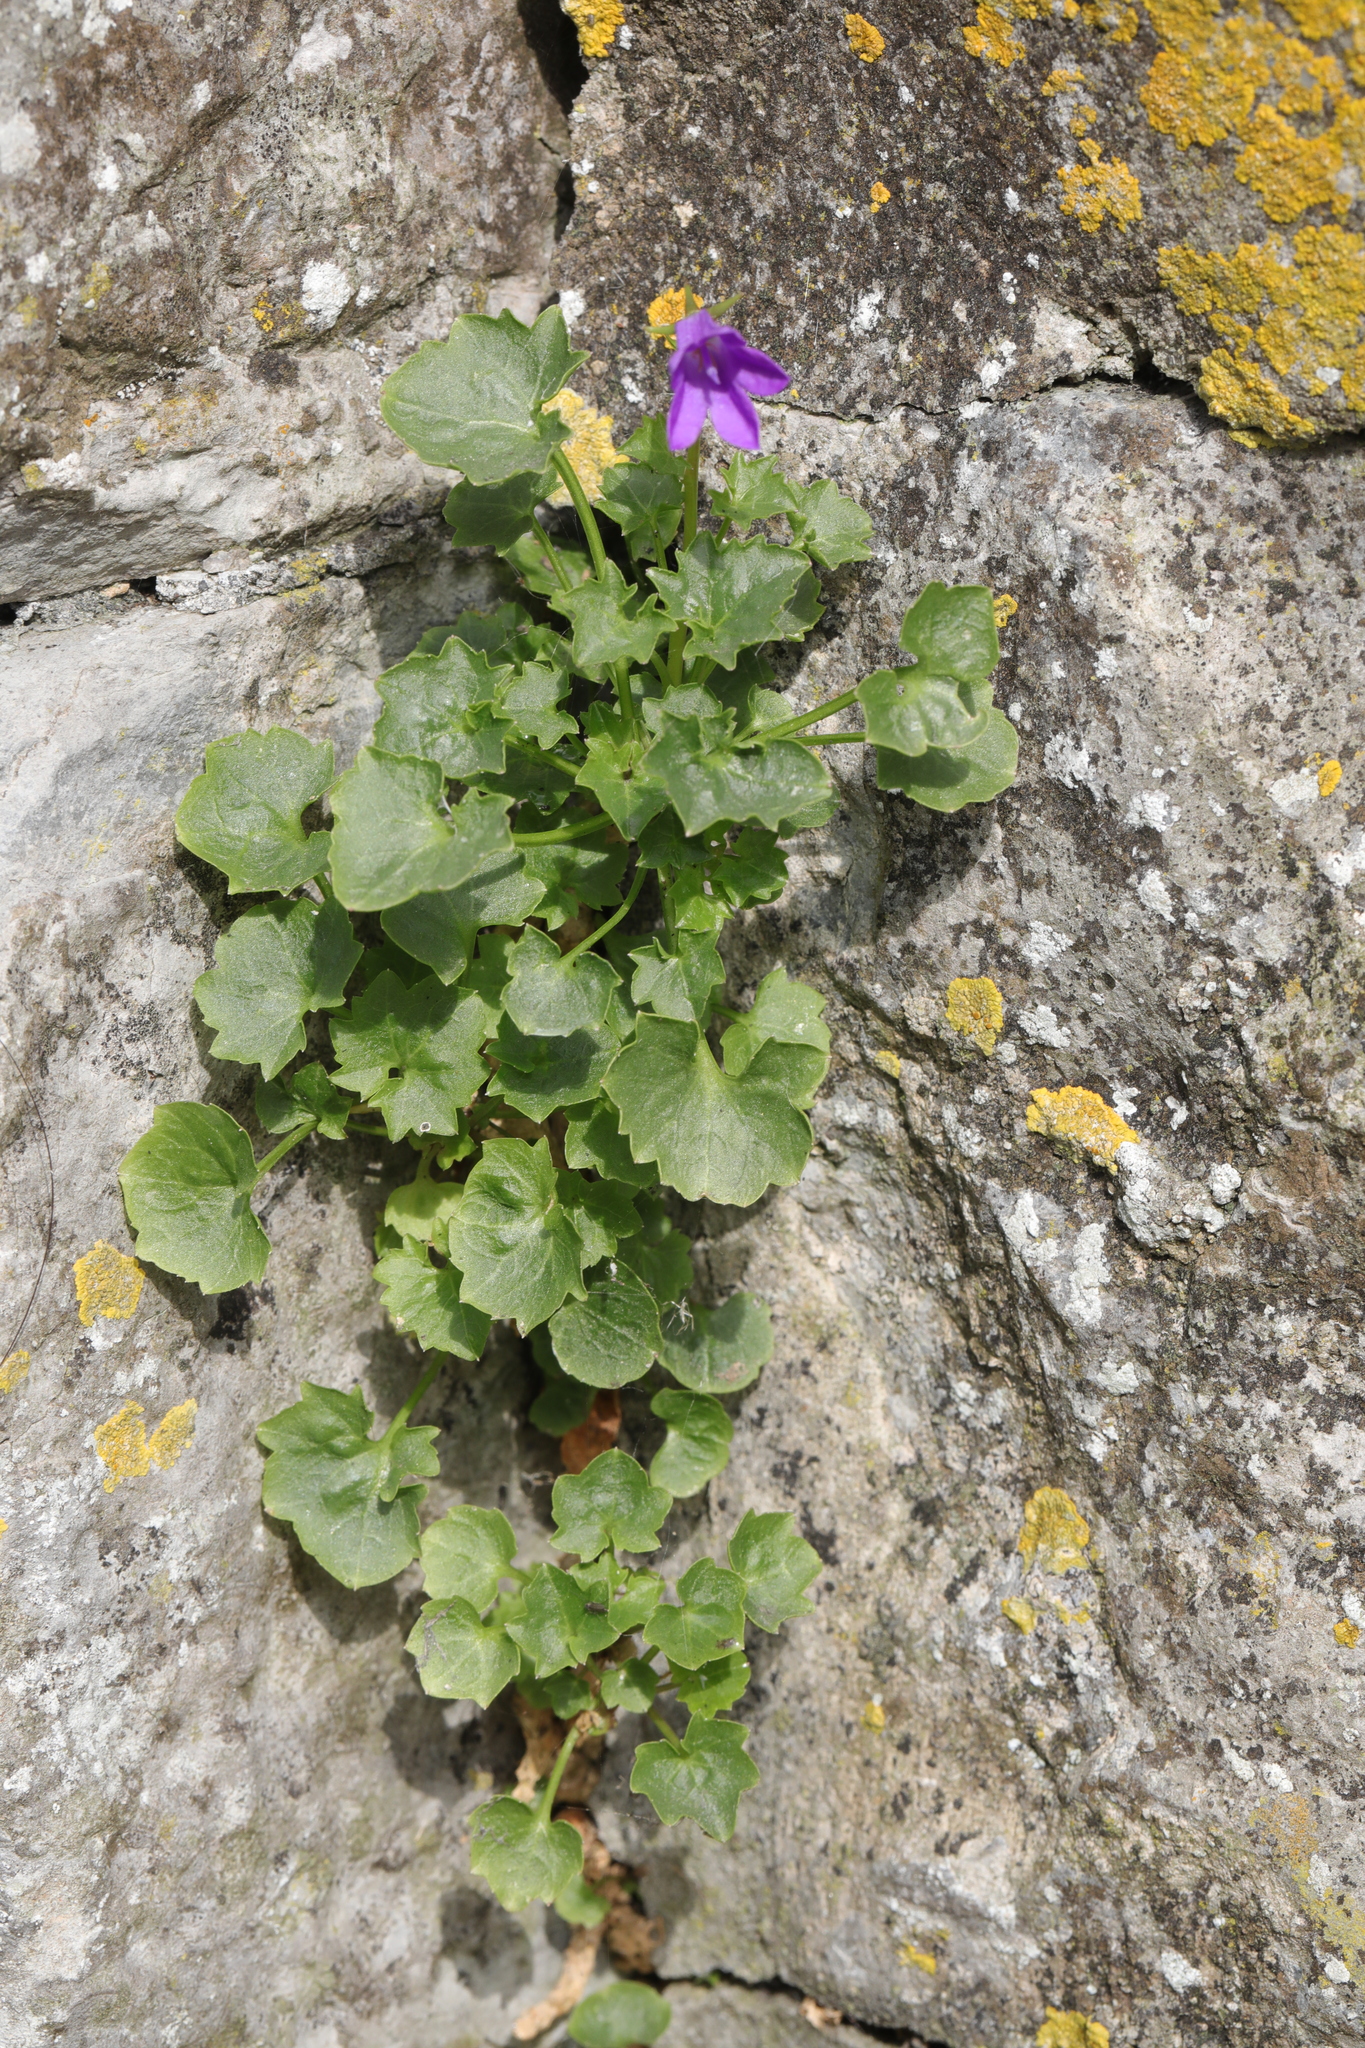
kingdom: Plantae
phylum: Tracheophyta
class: Magnoliopsida
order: Asterales
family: Campanulaceae
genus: Campanula
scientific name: Campanula portenschlagiana
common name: Adria bellflower
